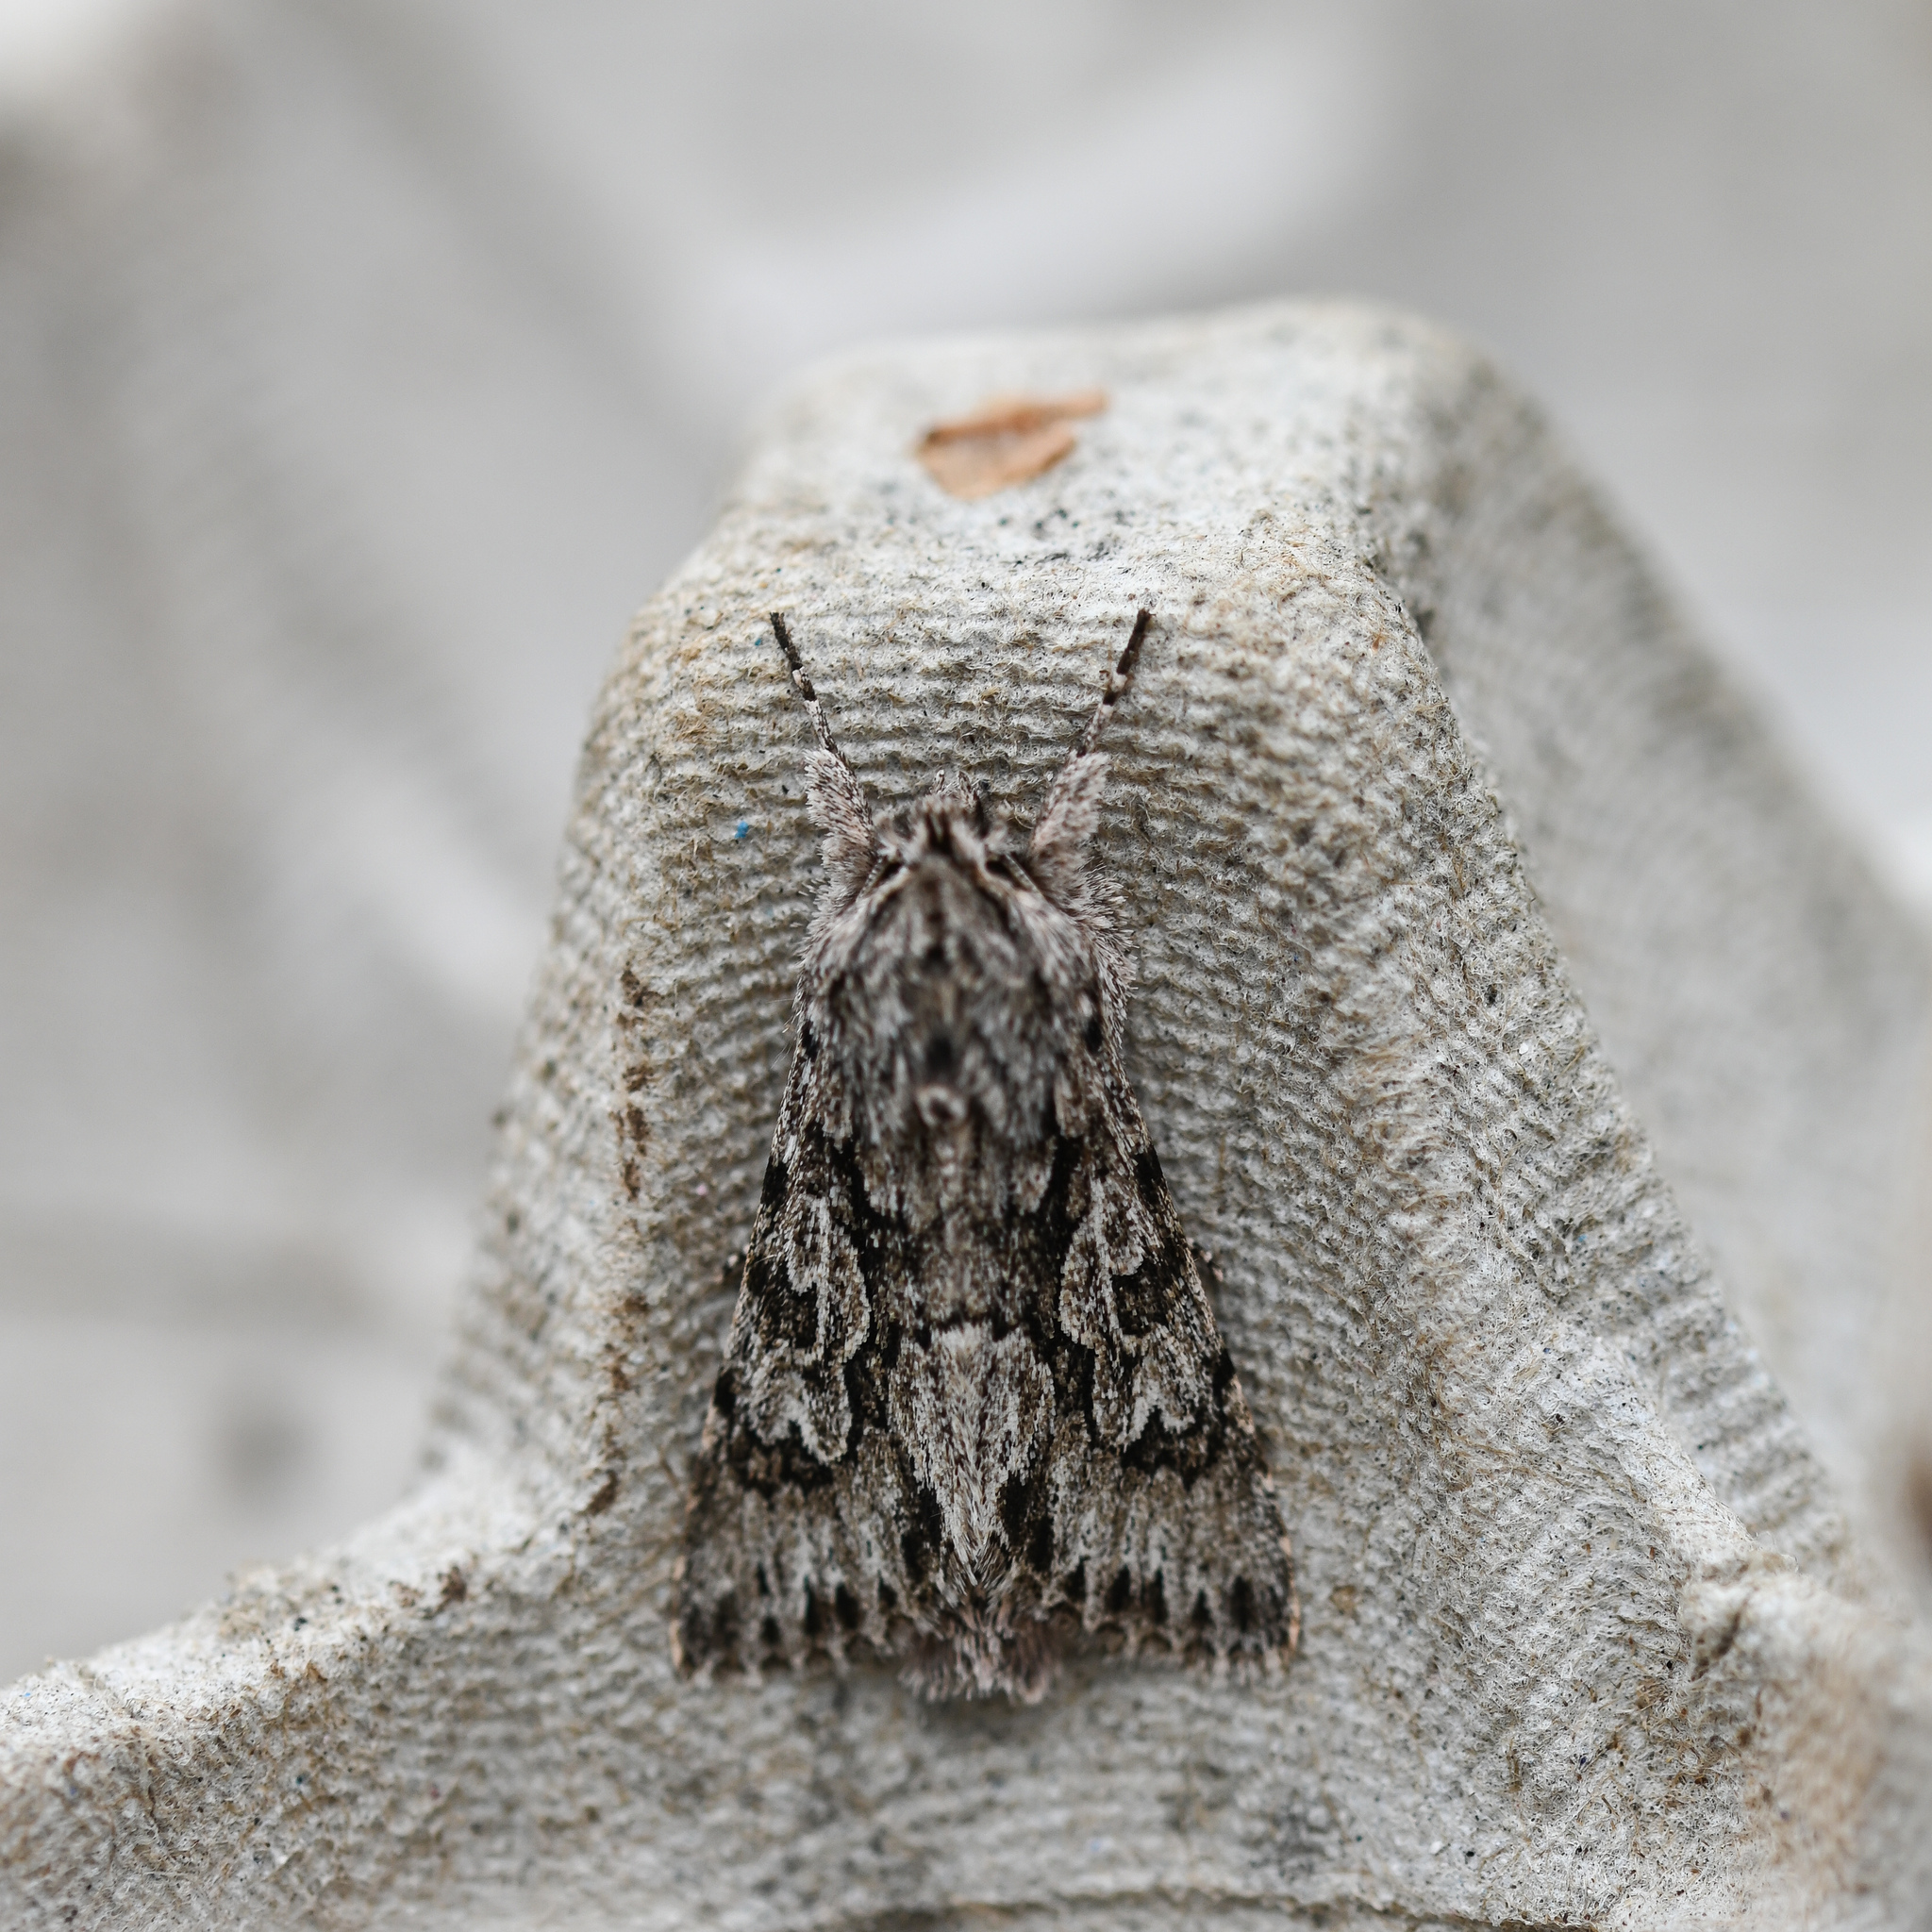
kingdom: Animalia
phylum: Arthropoda
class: Insecta
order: Lepidoptera
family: Noctuidae
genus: Xylocampa
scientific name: Xylocampa areola
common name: Early grey
